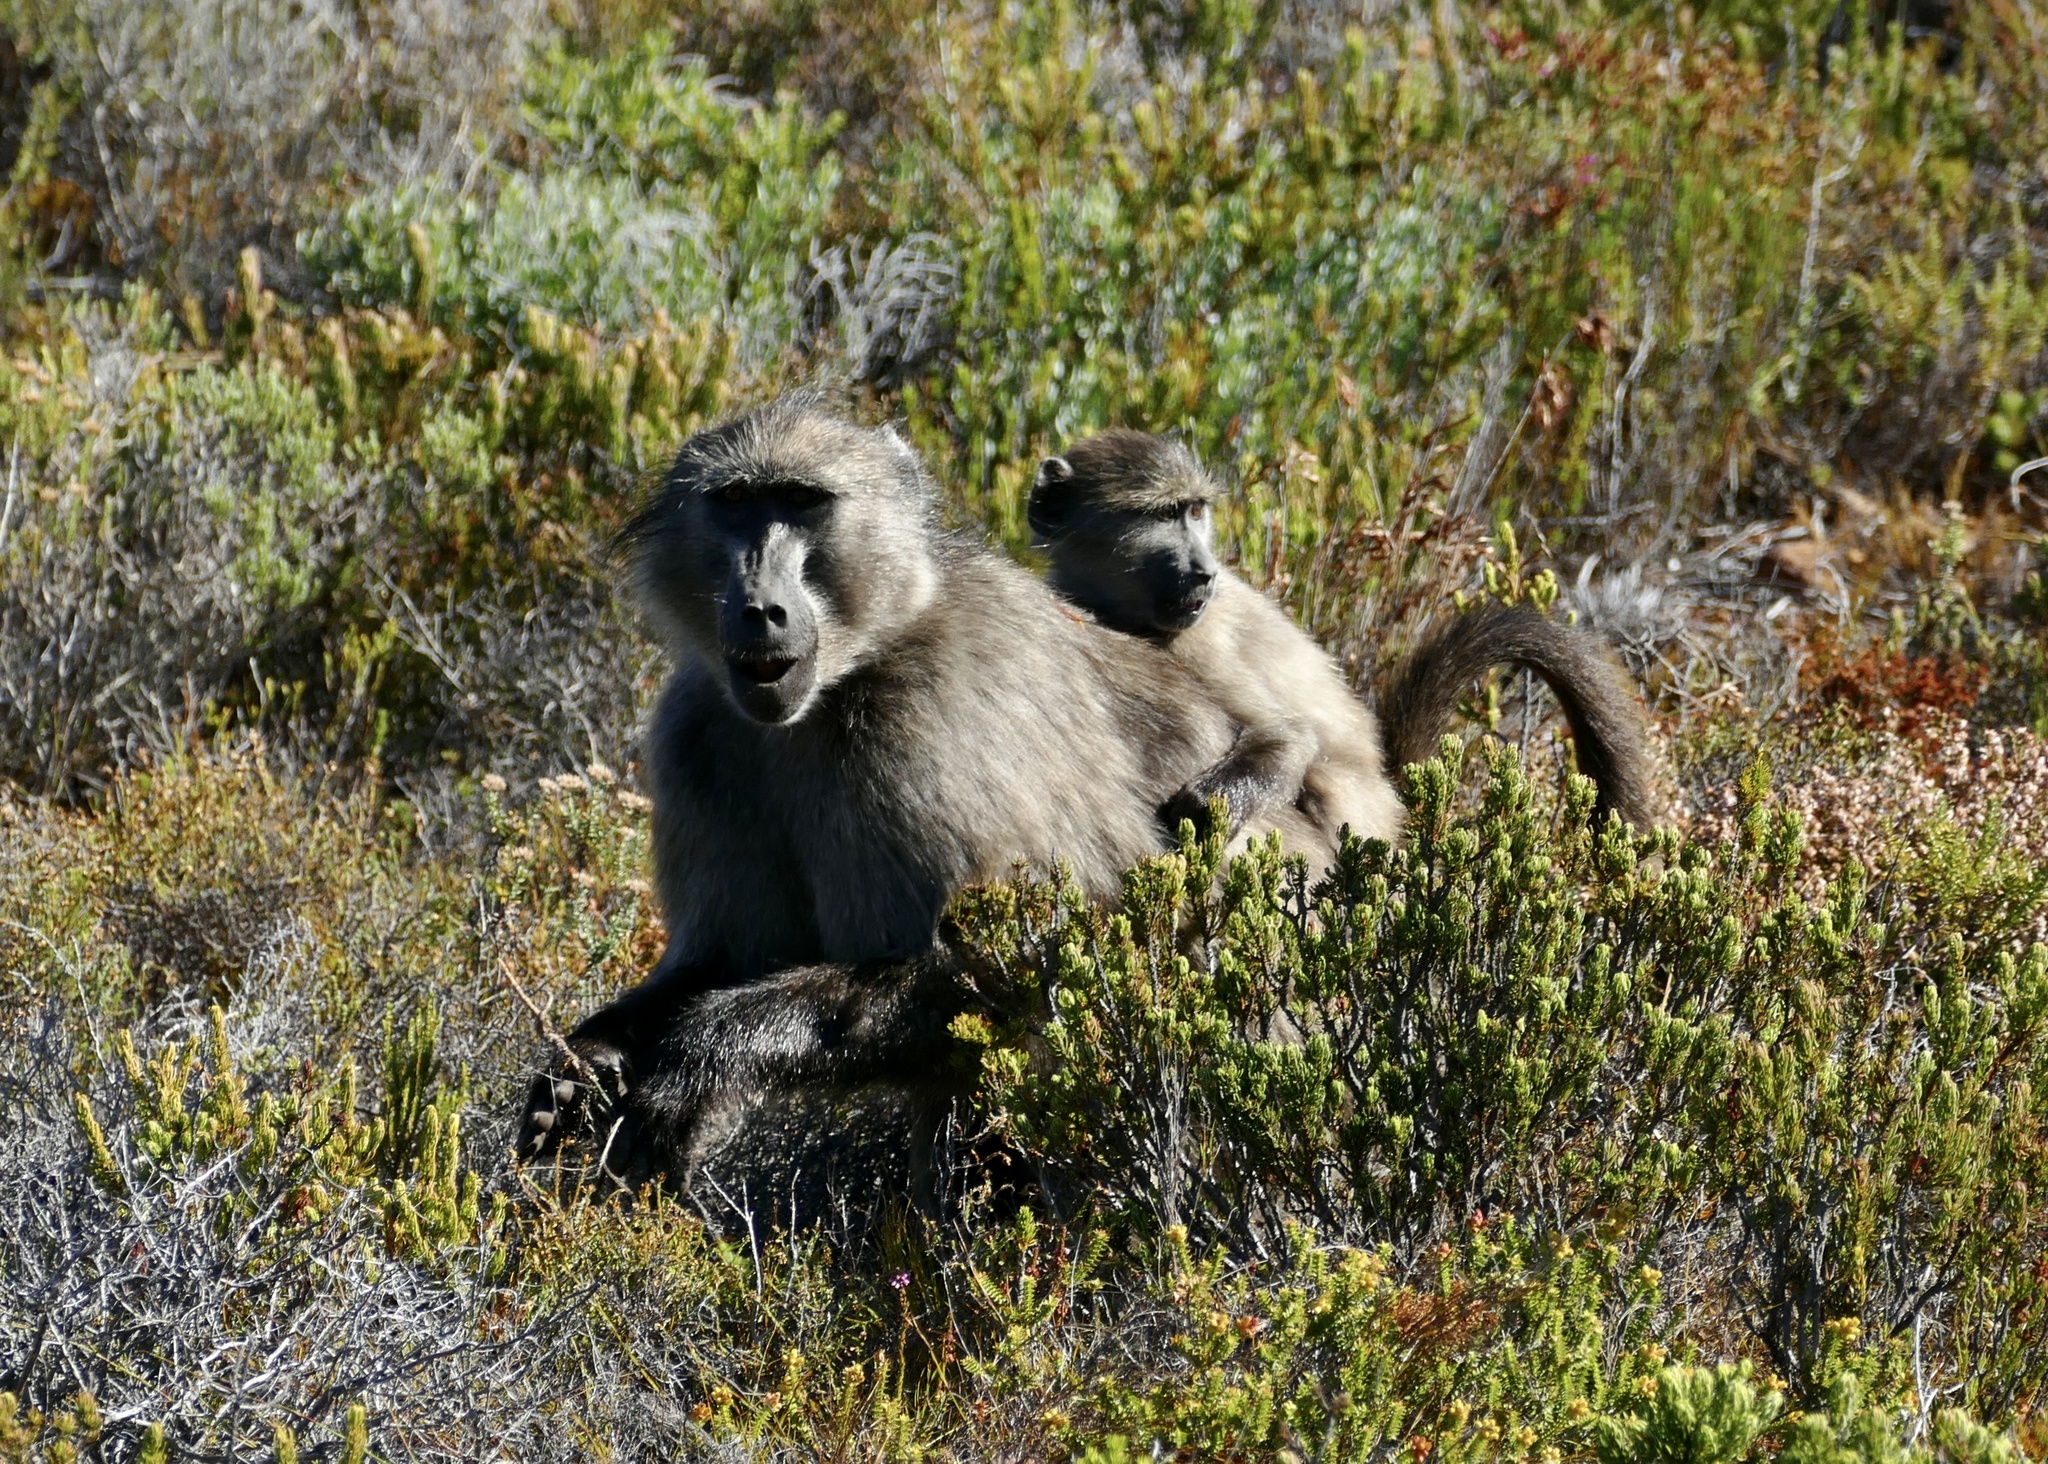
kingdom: Animalia
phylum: Chordata
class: Mammalia
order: Primates
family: Cercopithecidae
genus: Papio
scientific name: Papio ursinus
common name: Chacma baboon
